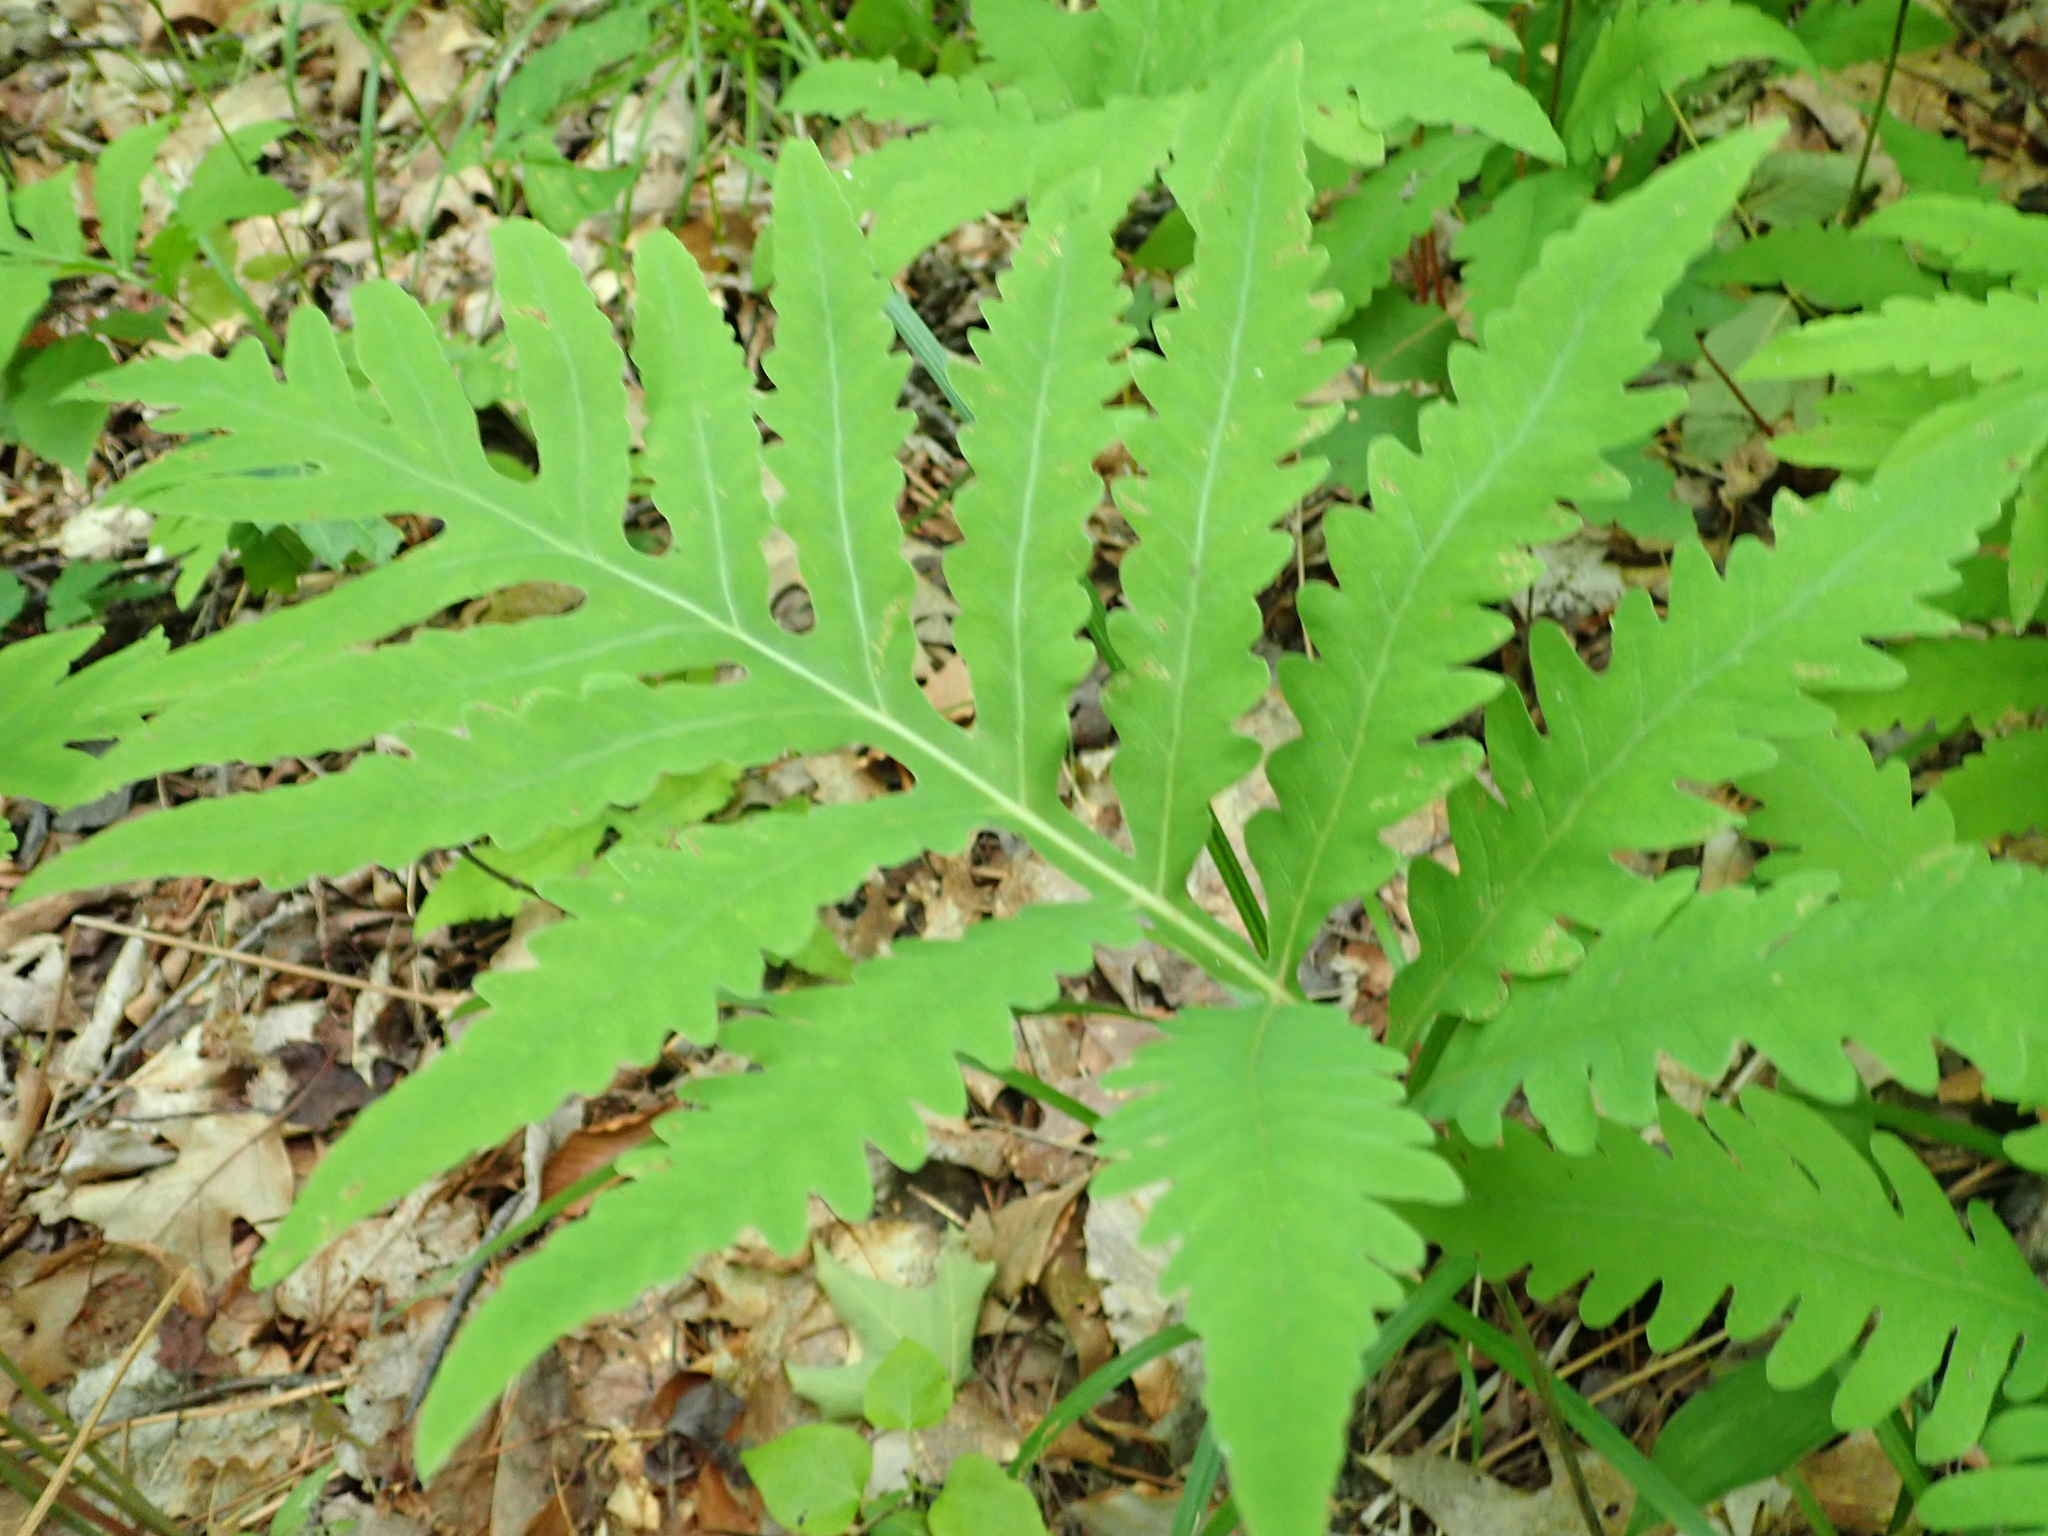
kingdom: Plantae
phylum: Tracheophyta
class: Polypodiopsida
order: Polypodiales
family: Onocleaceae
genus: Onoclea
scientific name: Onoclea sensibilis
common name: Sensitive fern
